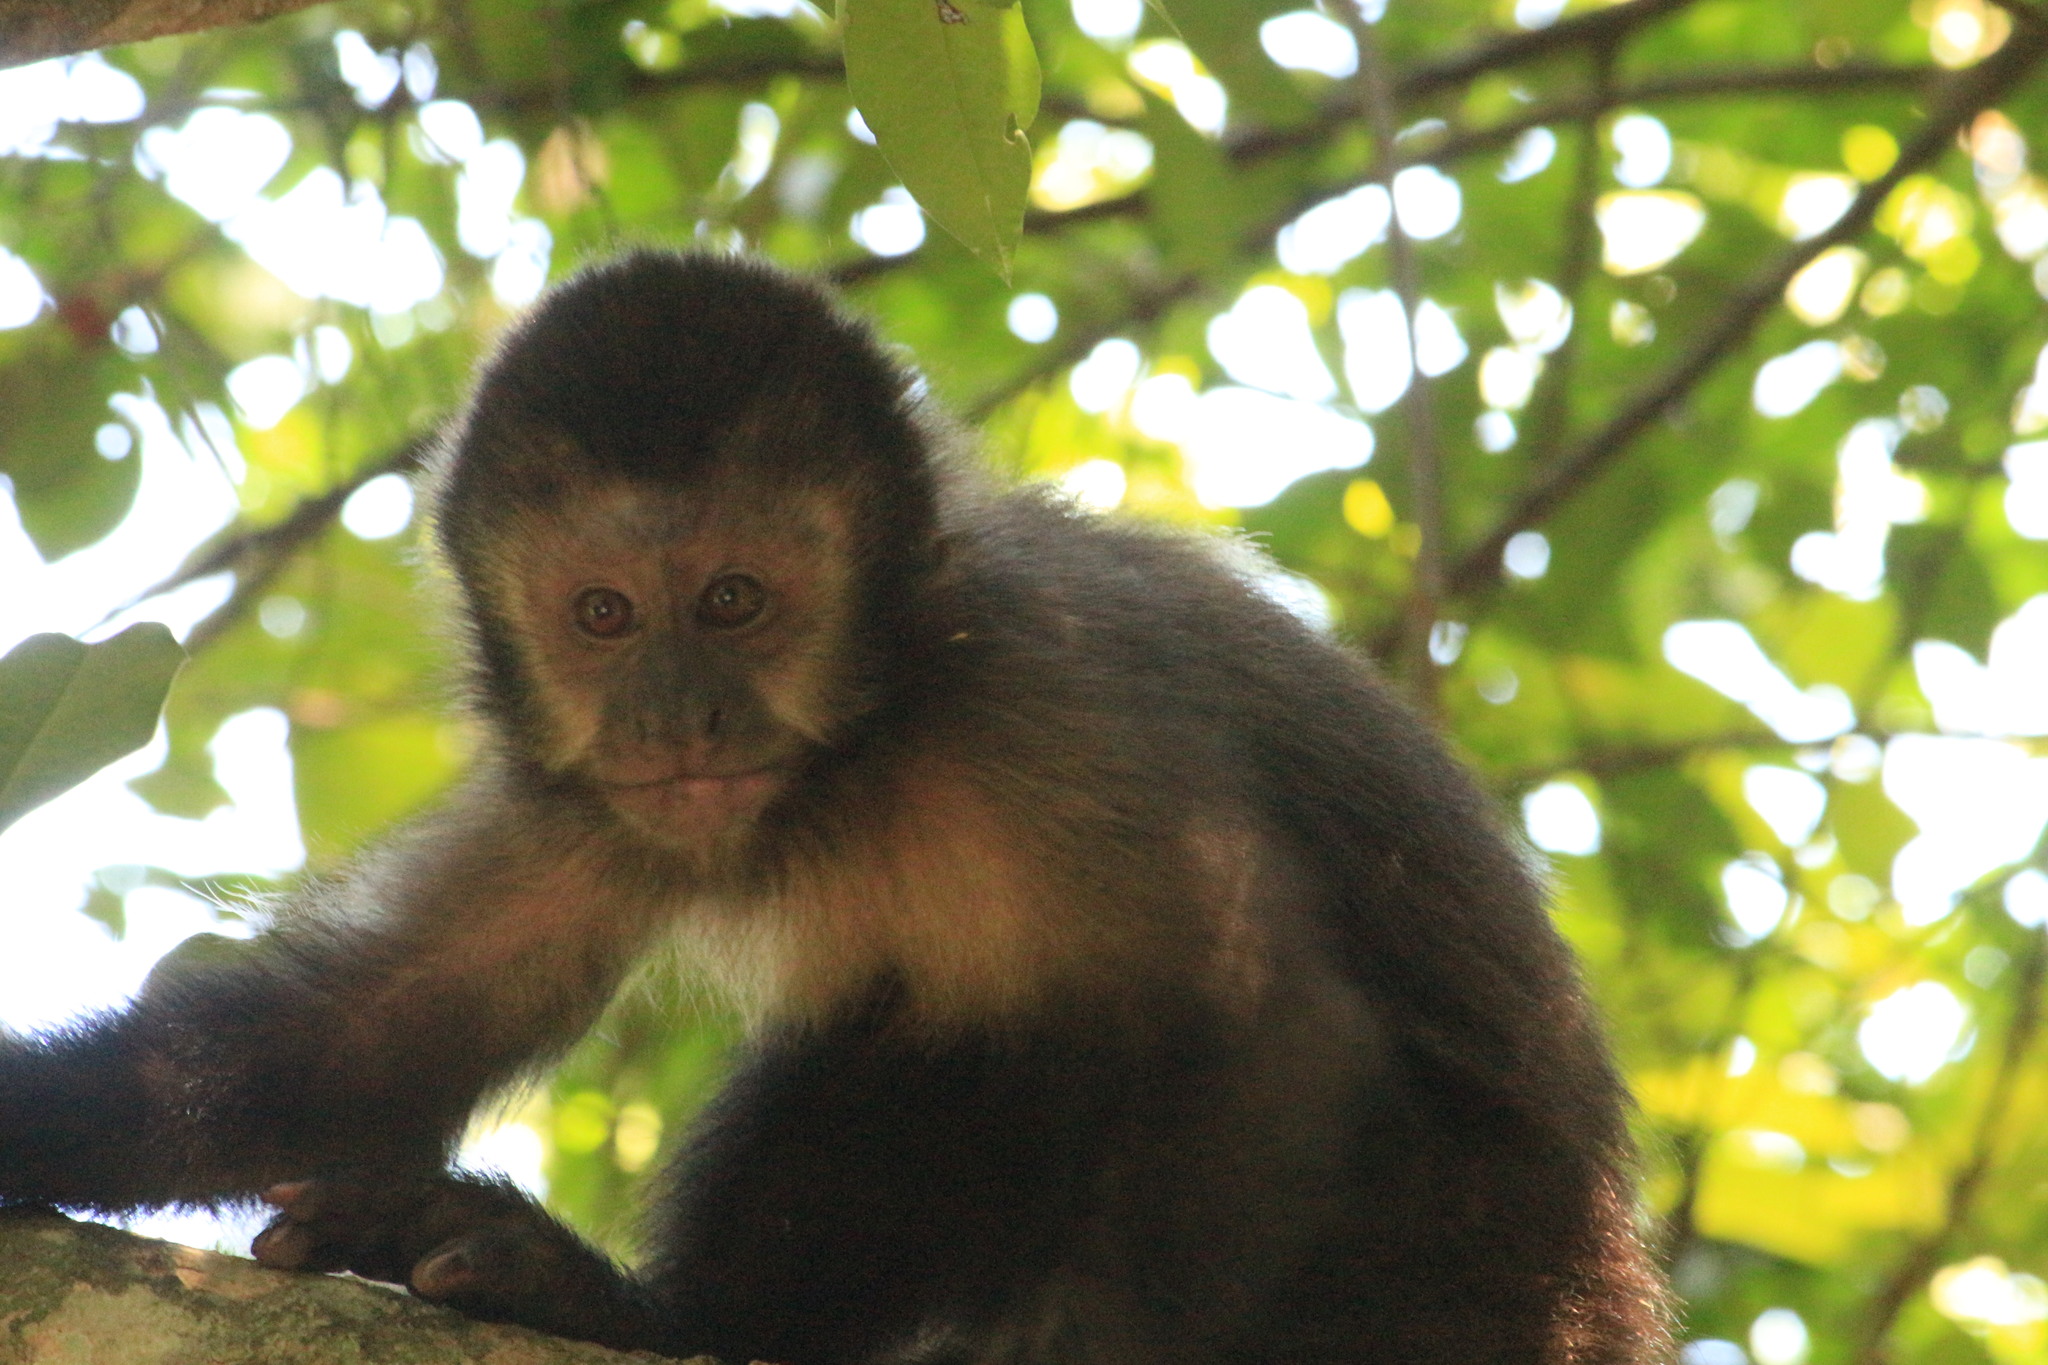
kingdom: Animalia
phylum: Chordata
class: Mammalia
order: Primates
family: Cebidae
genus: Sapajus
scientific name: Sapajus nigritus
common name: Black capuchin
